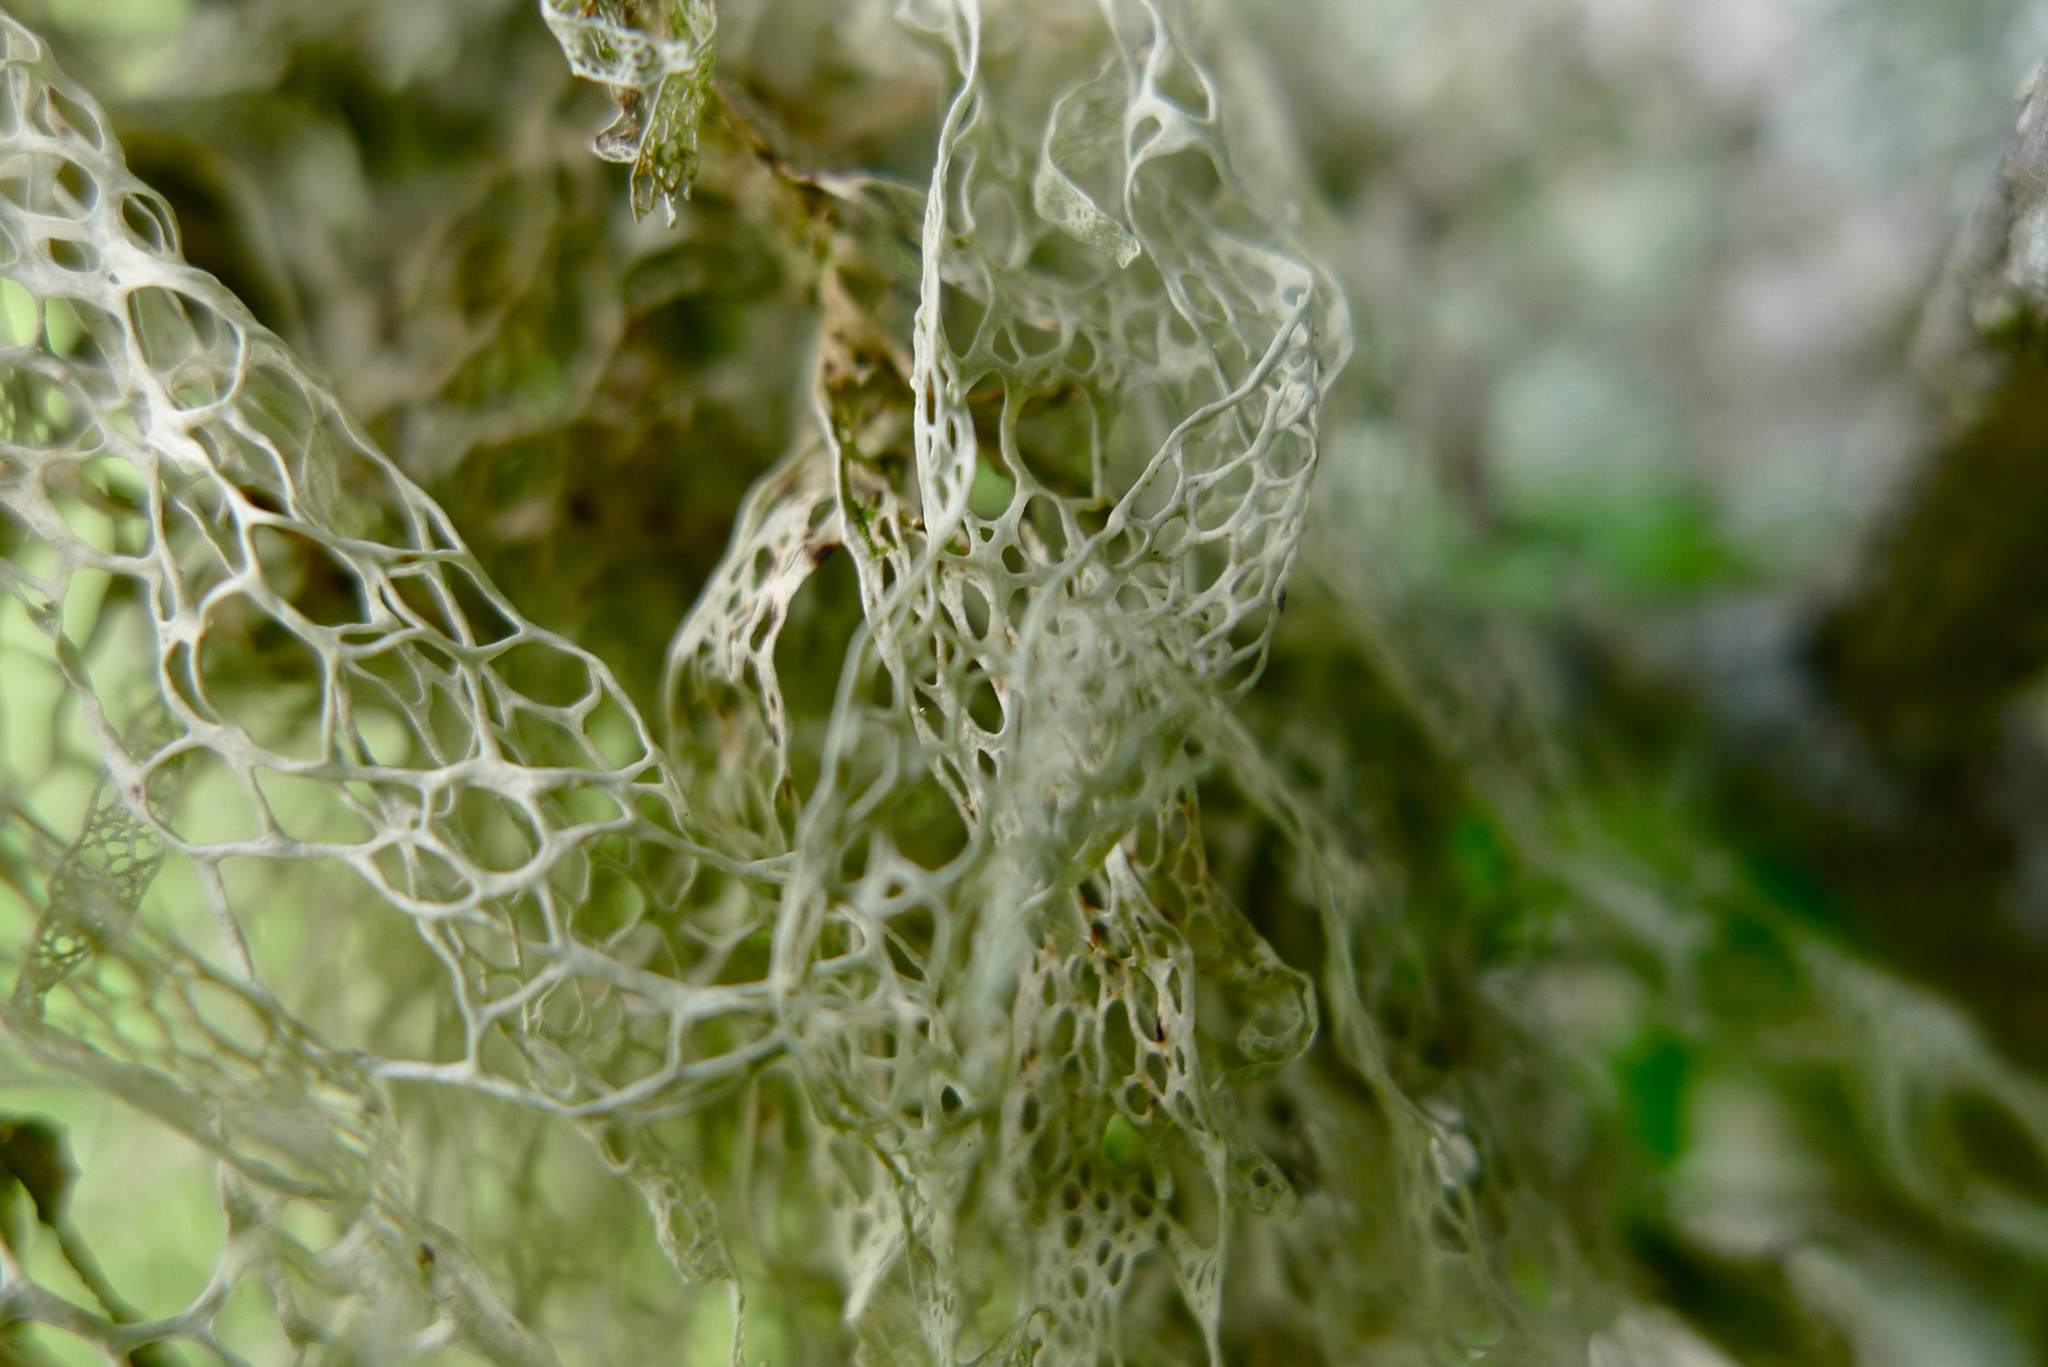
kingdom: Fungi
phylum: Ascomycota
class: Lecanoromycetes
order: Lecanorales
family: Ramalinaceae
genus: Ramalina
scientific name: Ramalina menziesii
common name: Lace lichen
